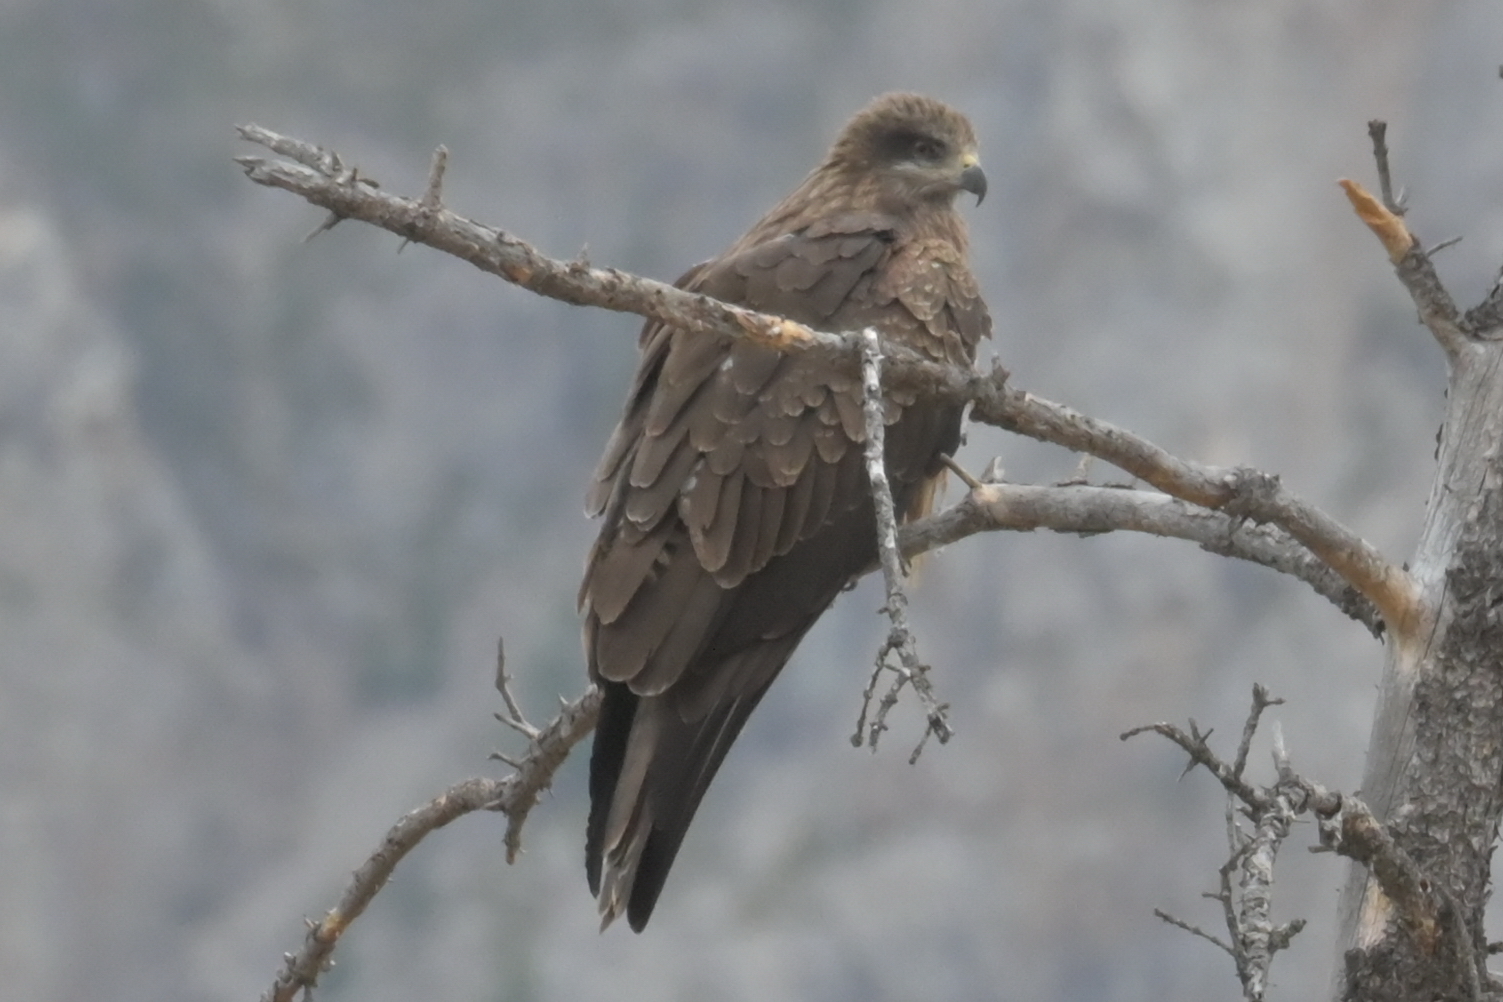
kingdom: Animalia
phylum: Chordata
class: Aves
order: Accipitriformes
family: Accipitridae
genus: Milvus
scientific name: Milvus migrans
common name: Black kite
